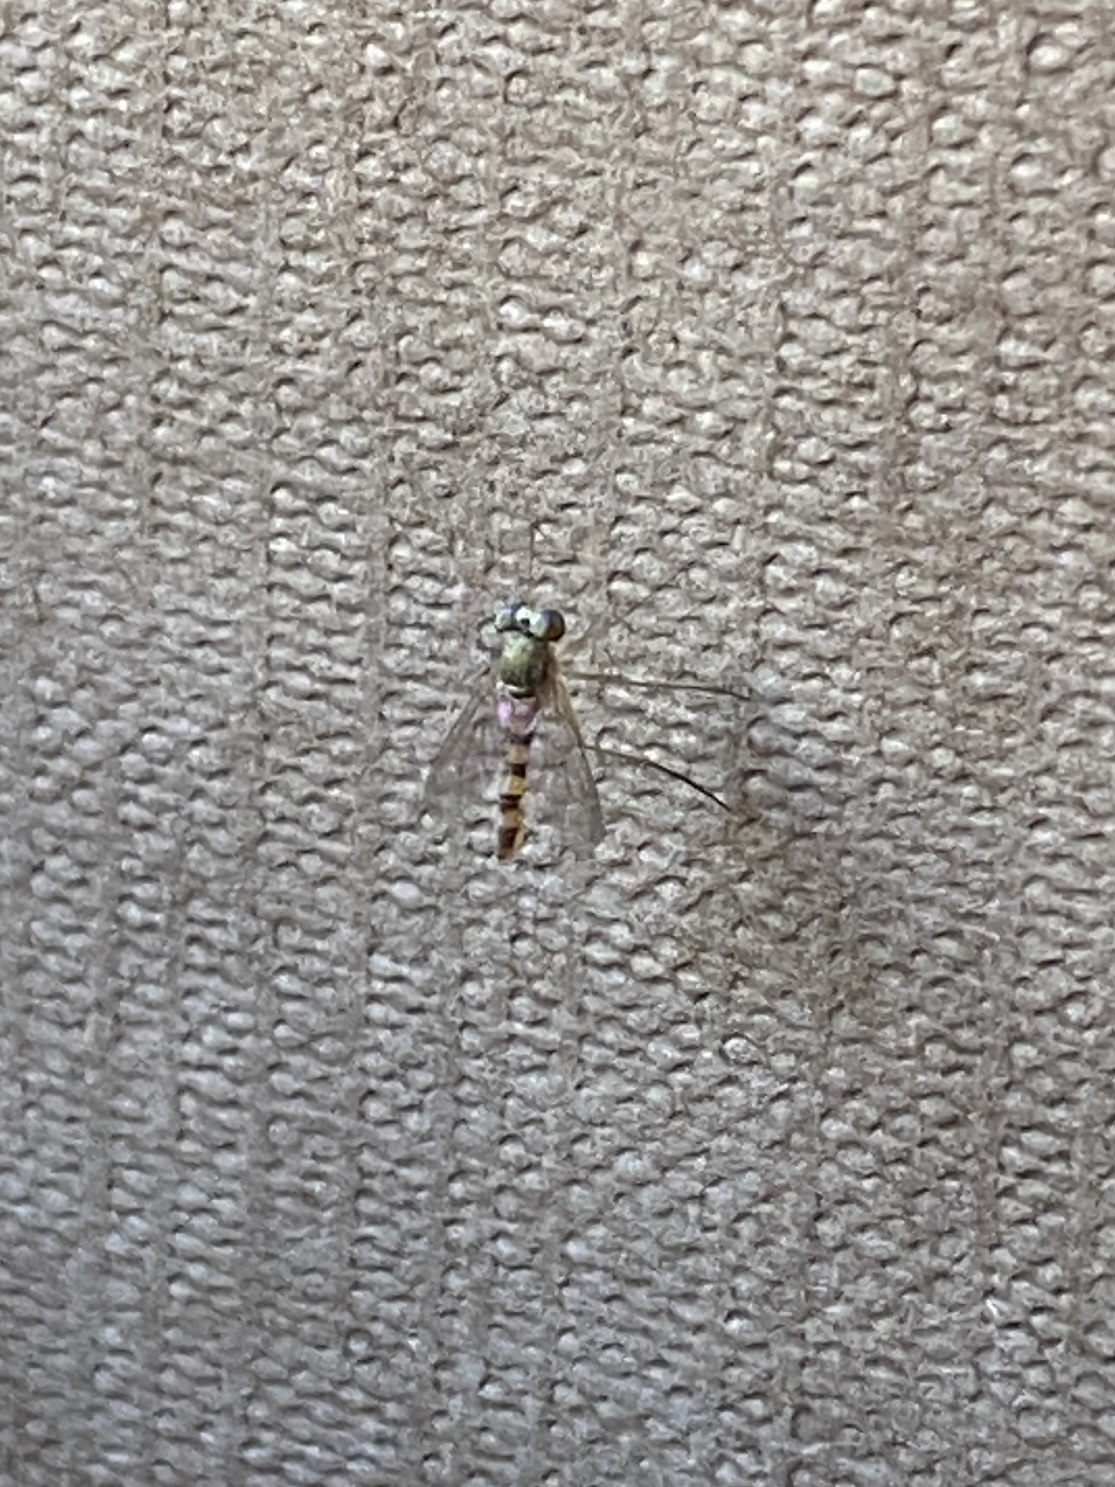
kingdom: Animalia
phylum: Arthropoda
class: Insecta
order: Diptera
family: Dolichopodidae
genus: Sciapus
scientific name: Sciapus heteropygus
